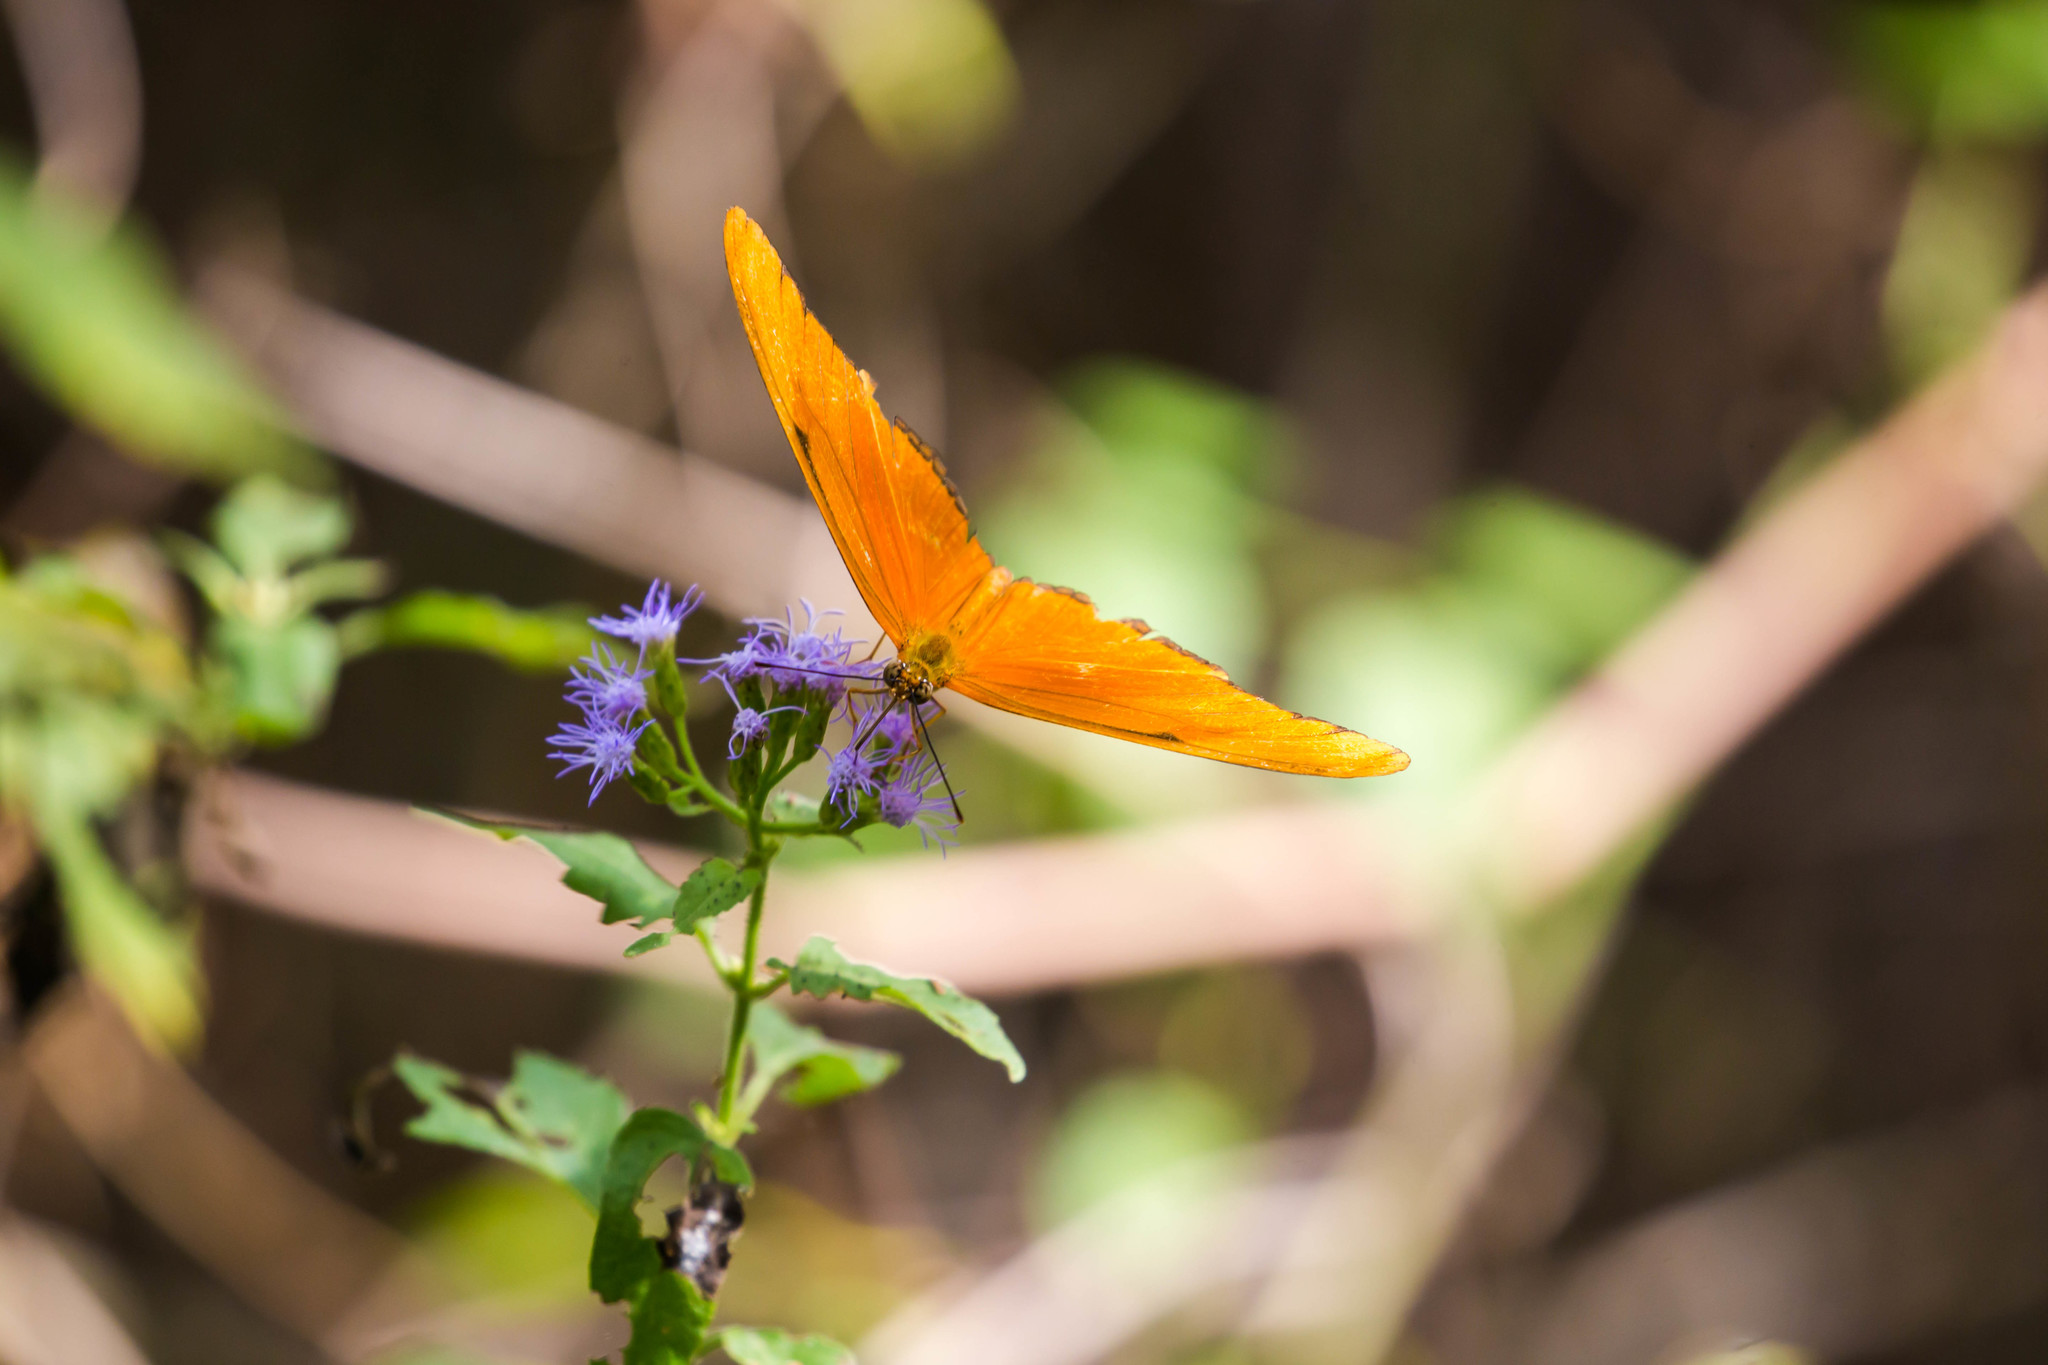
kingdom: Animalia
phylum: Arthropoda
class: Insecta
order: Lepidoptera
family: Nymphalidae
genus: Dryas
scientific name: Dryas iulia
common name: Flambeau
